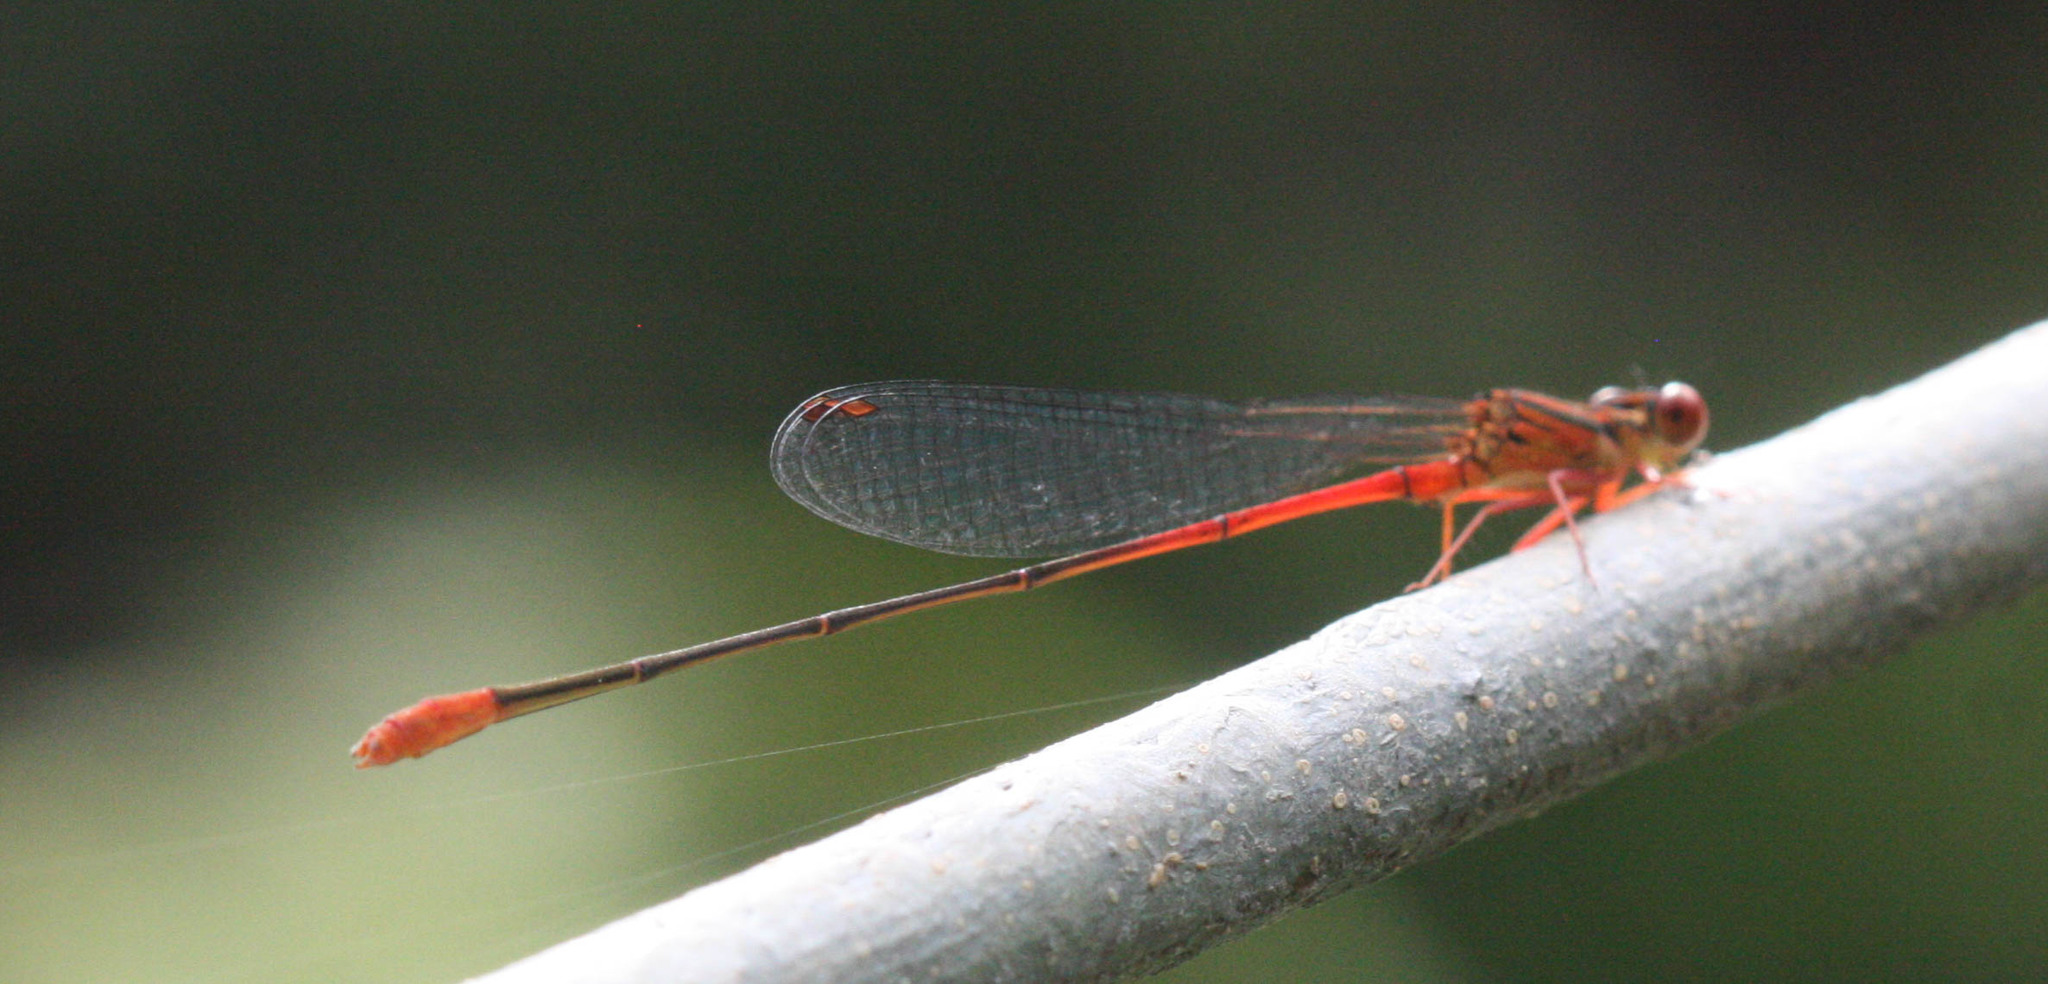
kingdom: Animalia
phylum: Arthropoda
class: Insecta
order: Odonata
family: Coenagrionidae
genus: Megalagrion
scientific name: Megalagrion oresitrophum
